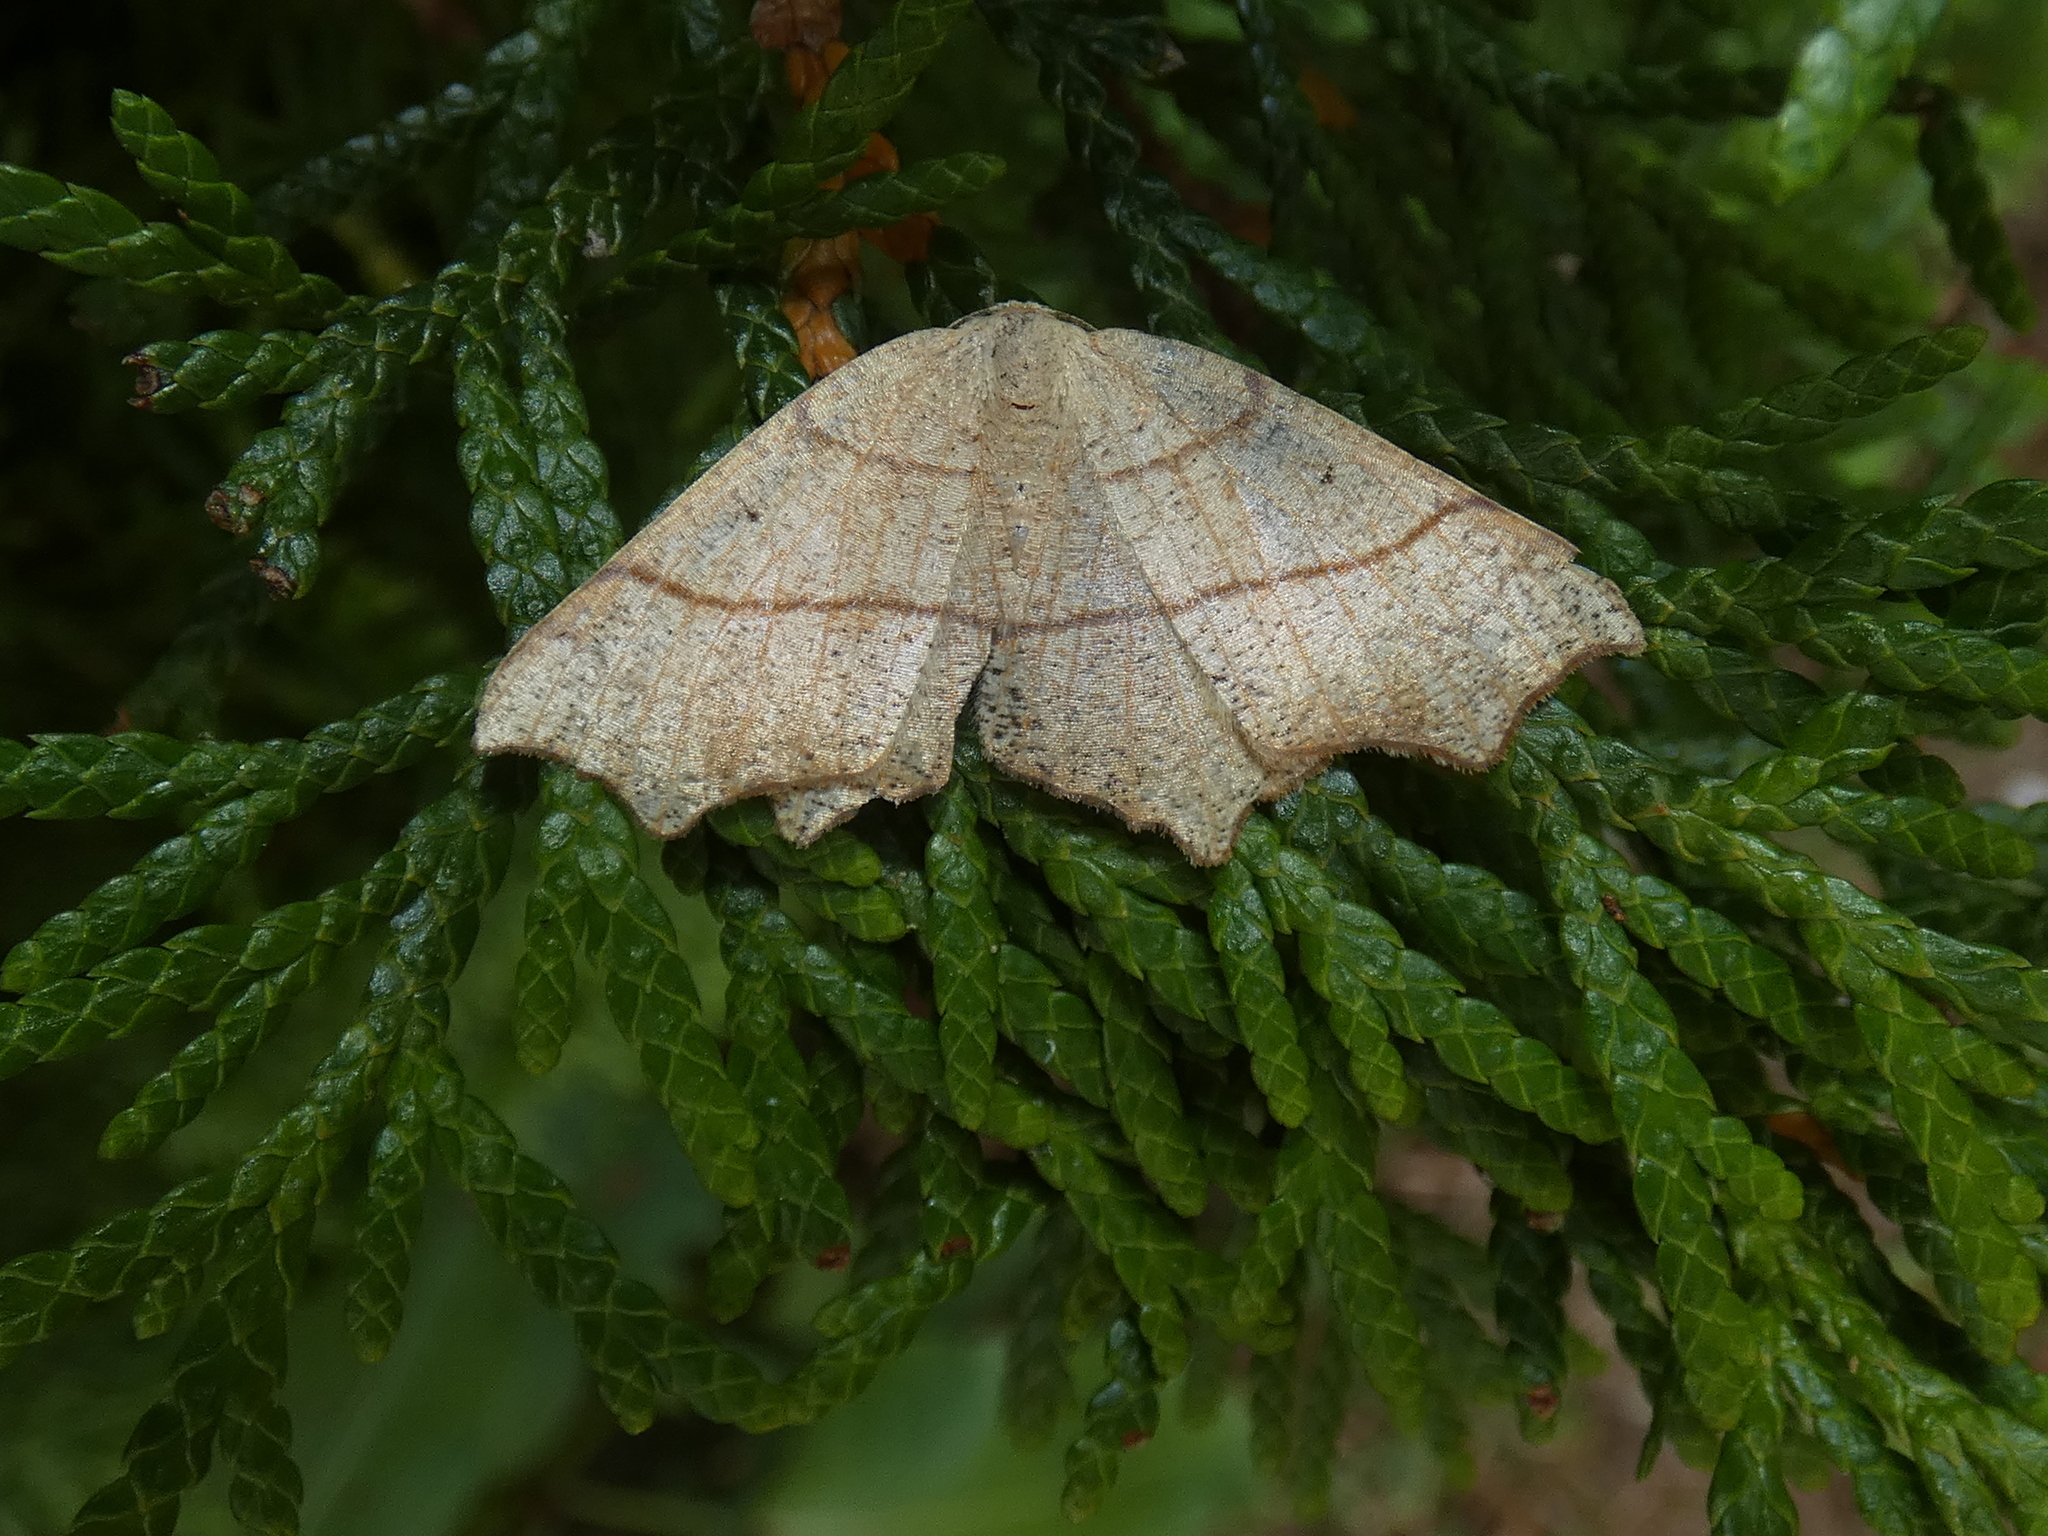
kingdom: Animalia
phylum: Arthropoda
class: Insecta
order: Lepidoptera
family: Geometridae
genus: Besma
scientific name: Besma quercivoraria
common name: Oak besma
